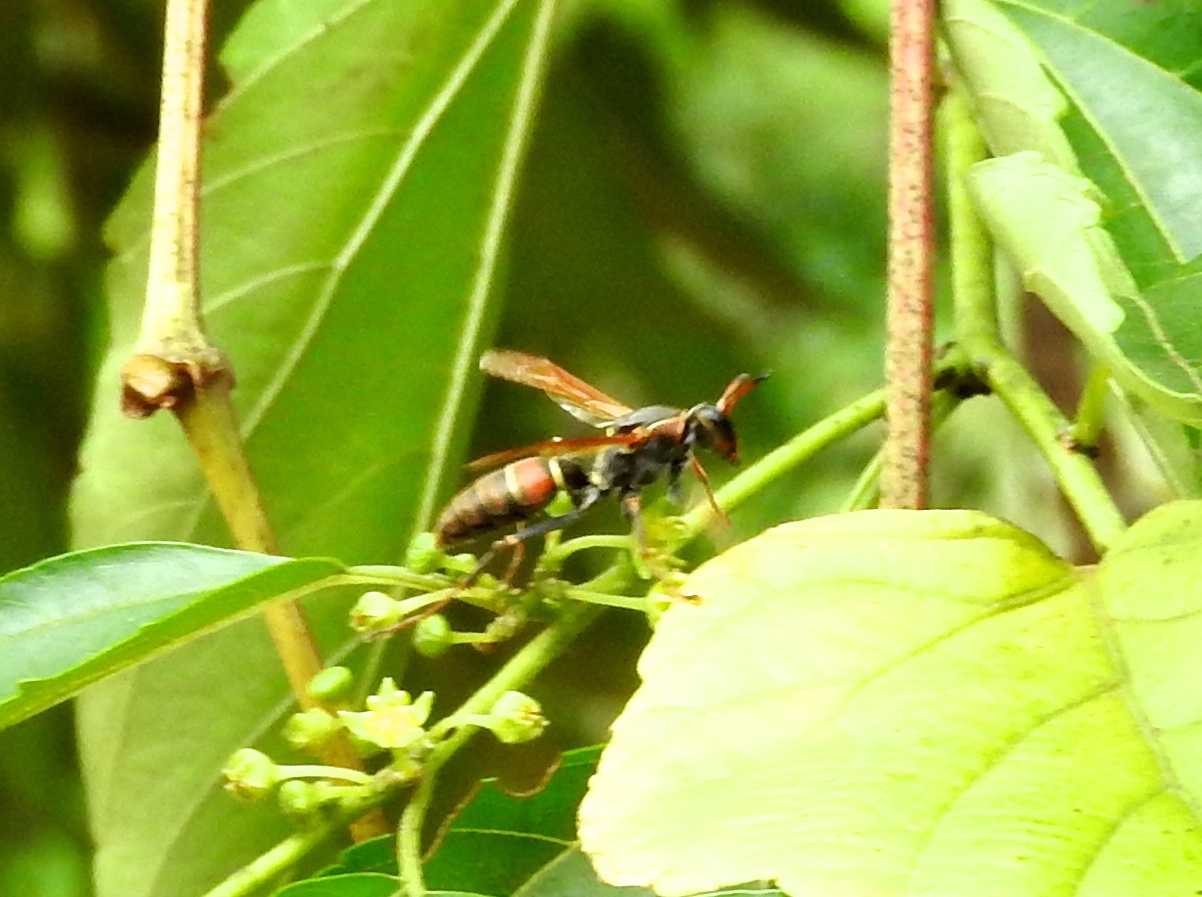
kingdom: Animalia
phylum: Arthropoda
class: Insecta
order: Hymenoptera
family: Eumenidae
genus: Polistes
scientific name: Polistes pacificus
